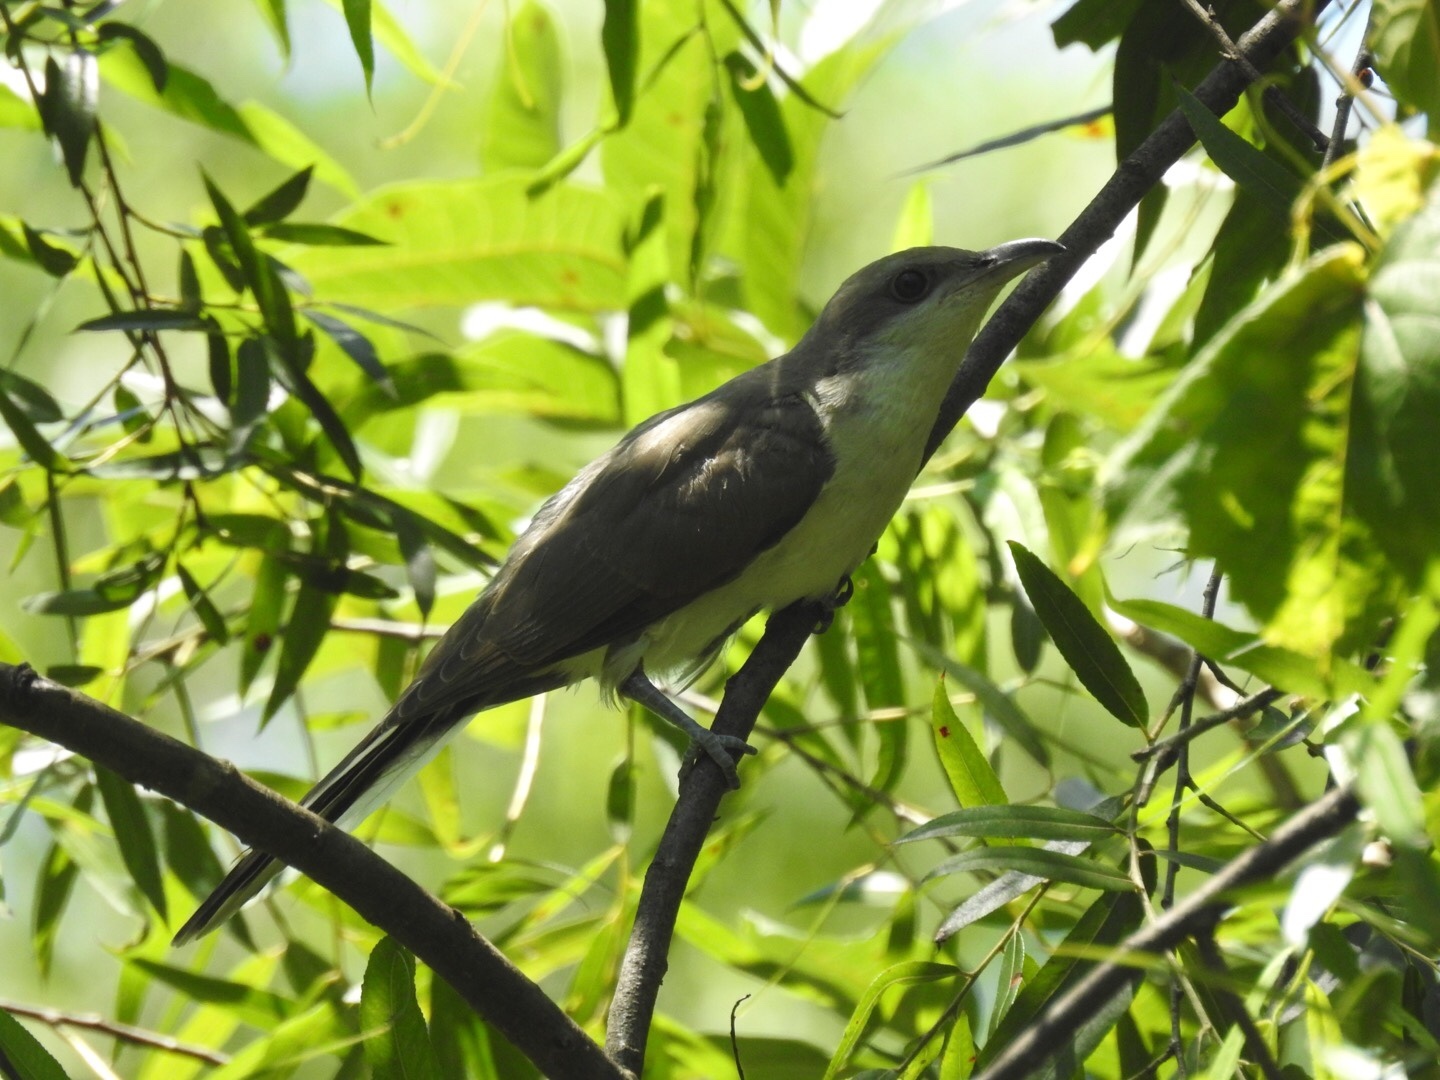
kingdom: Animalia
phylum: Chordata
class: Aves
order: Cuculiformes
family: Cuculidae
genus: Coccyzus
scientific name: Coccyzus americanus
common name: Yellow-billed cuckoo
